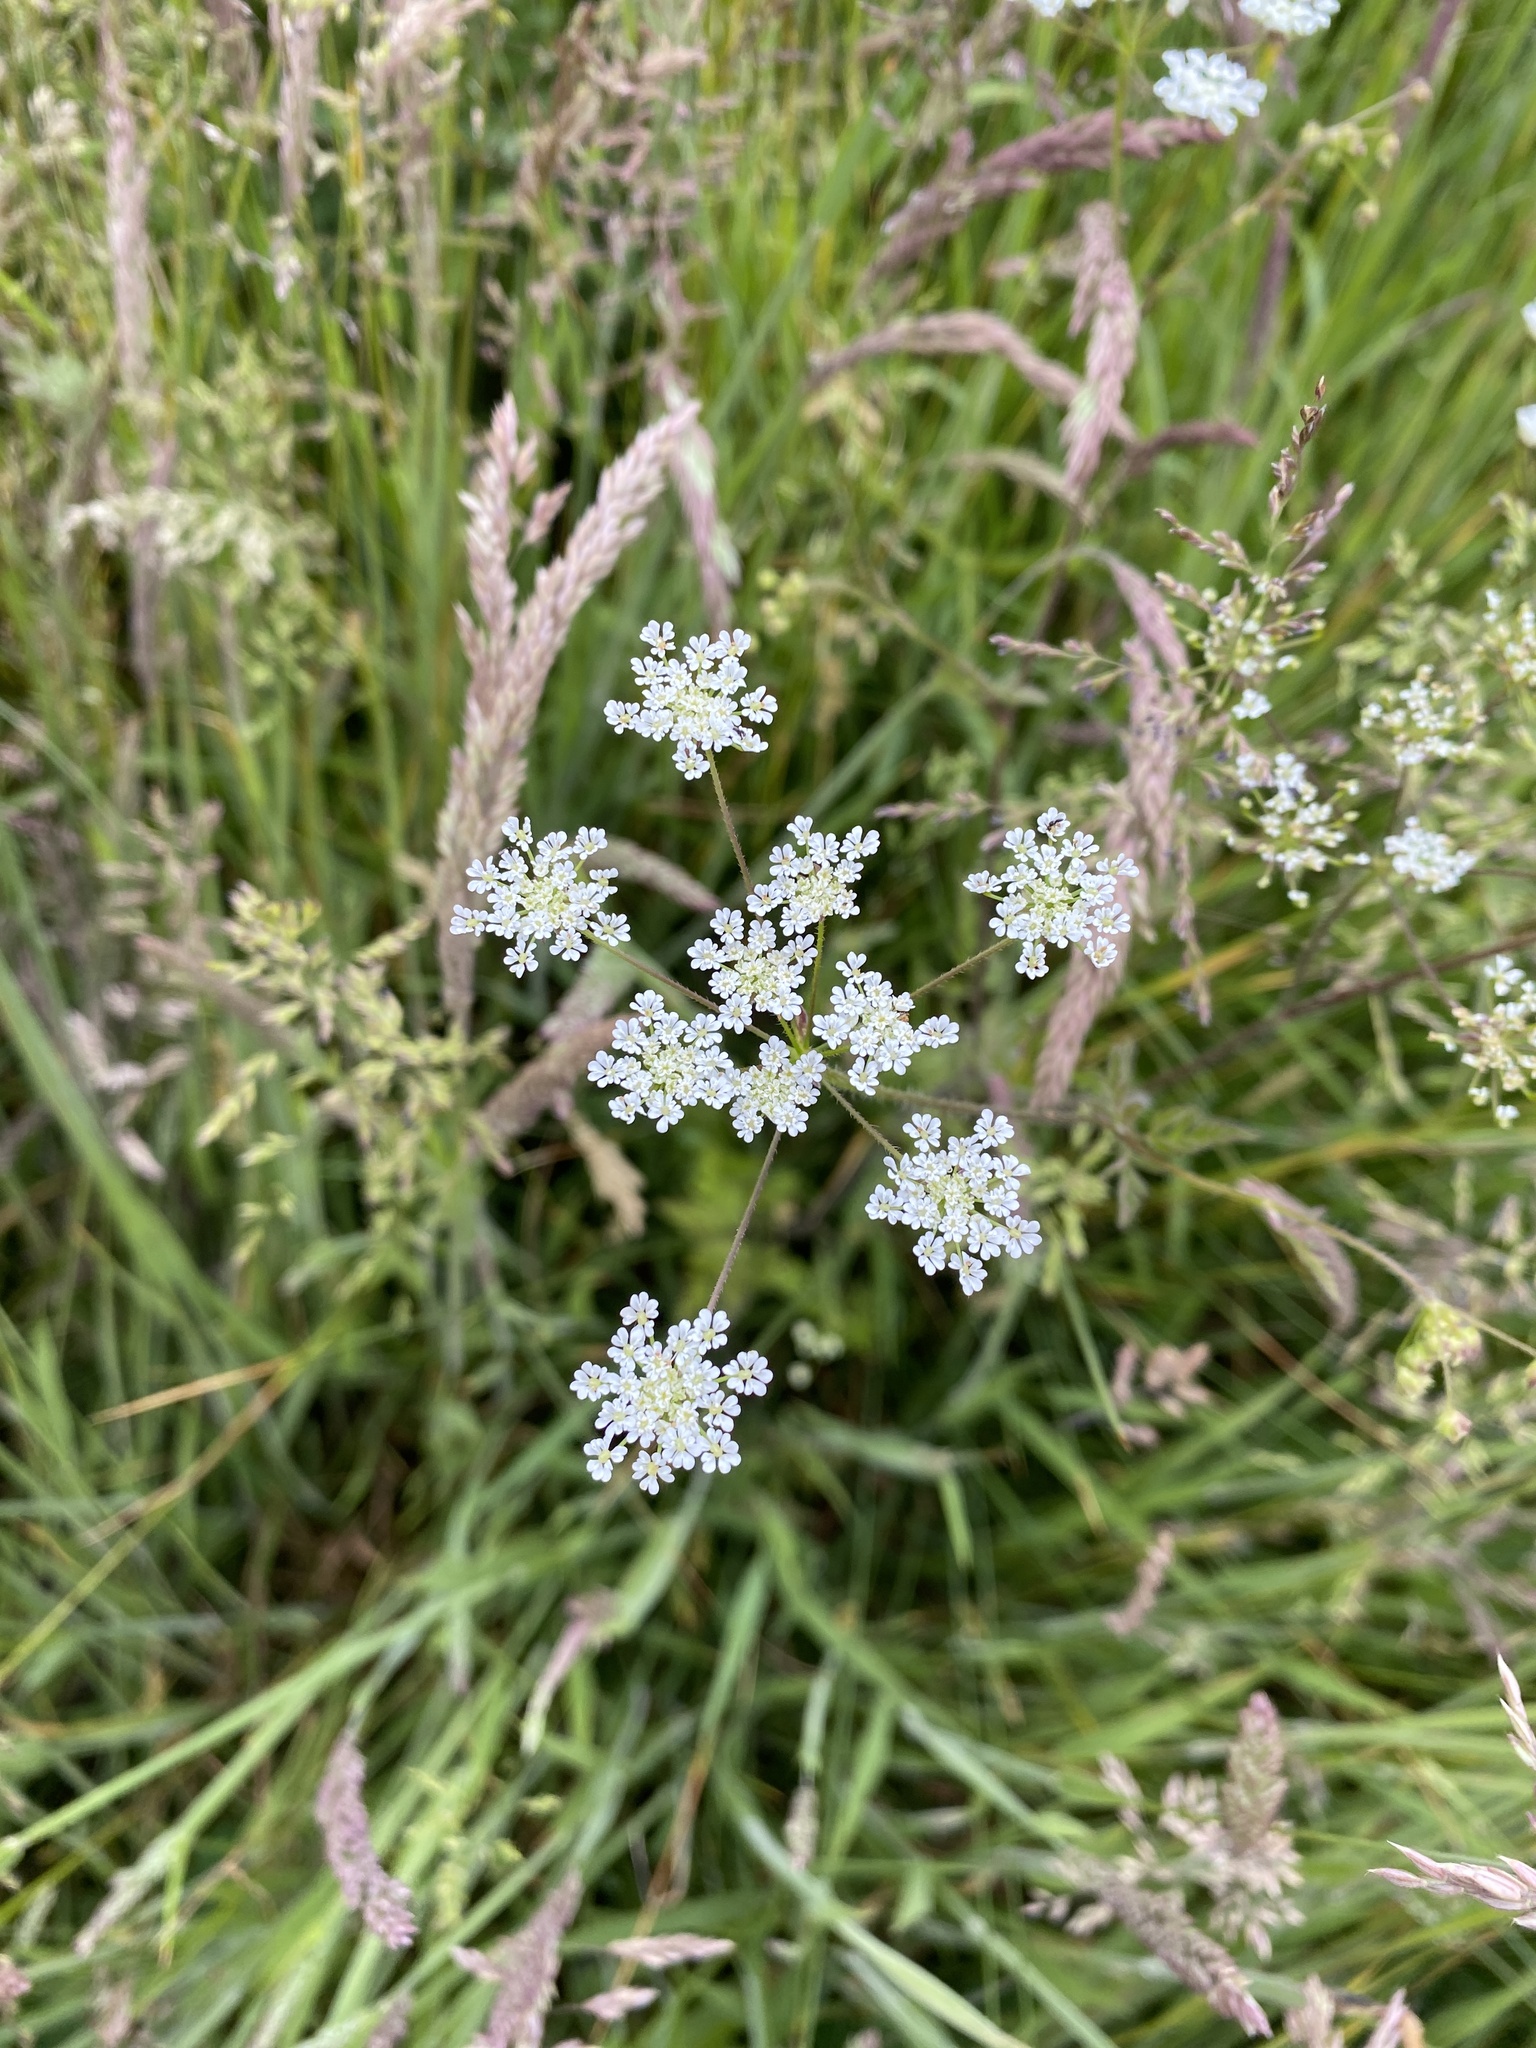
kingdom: Plantae
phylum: Tracheophyta
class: Magnoliopsida
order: Apiales
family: Apiaceae
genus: Chaerophyllum
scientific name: Chaerophyllum temulum
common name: Rough chervil
